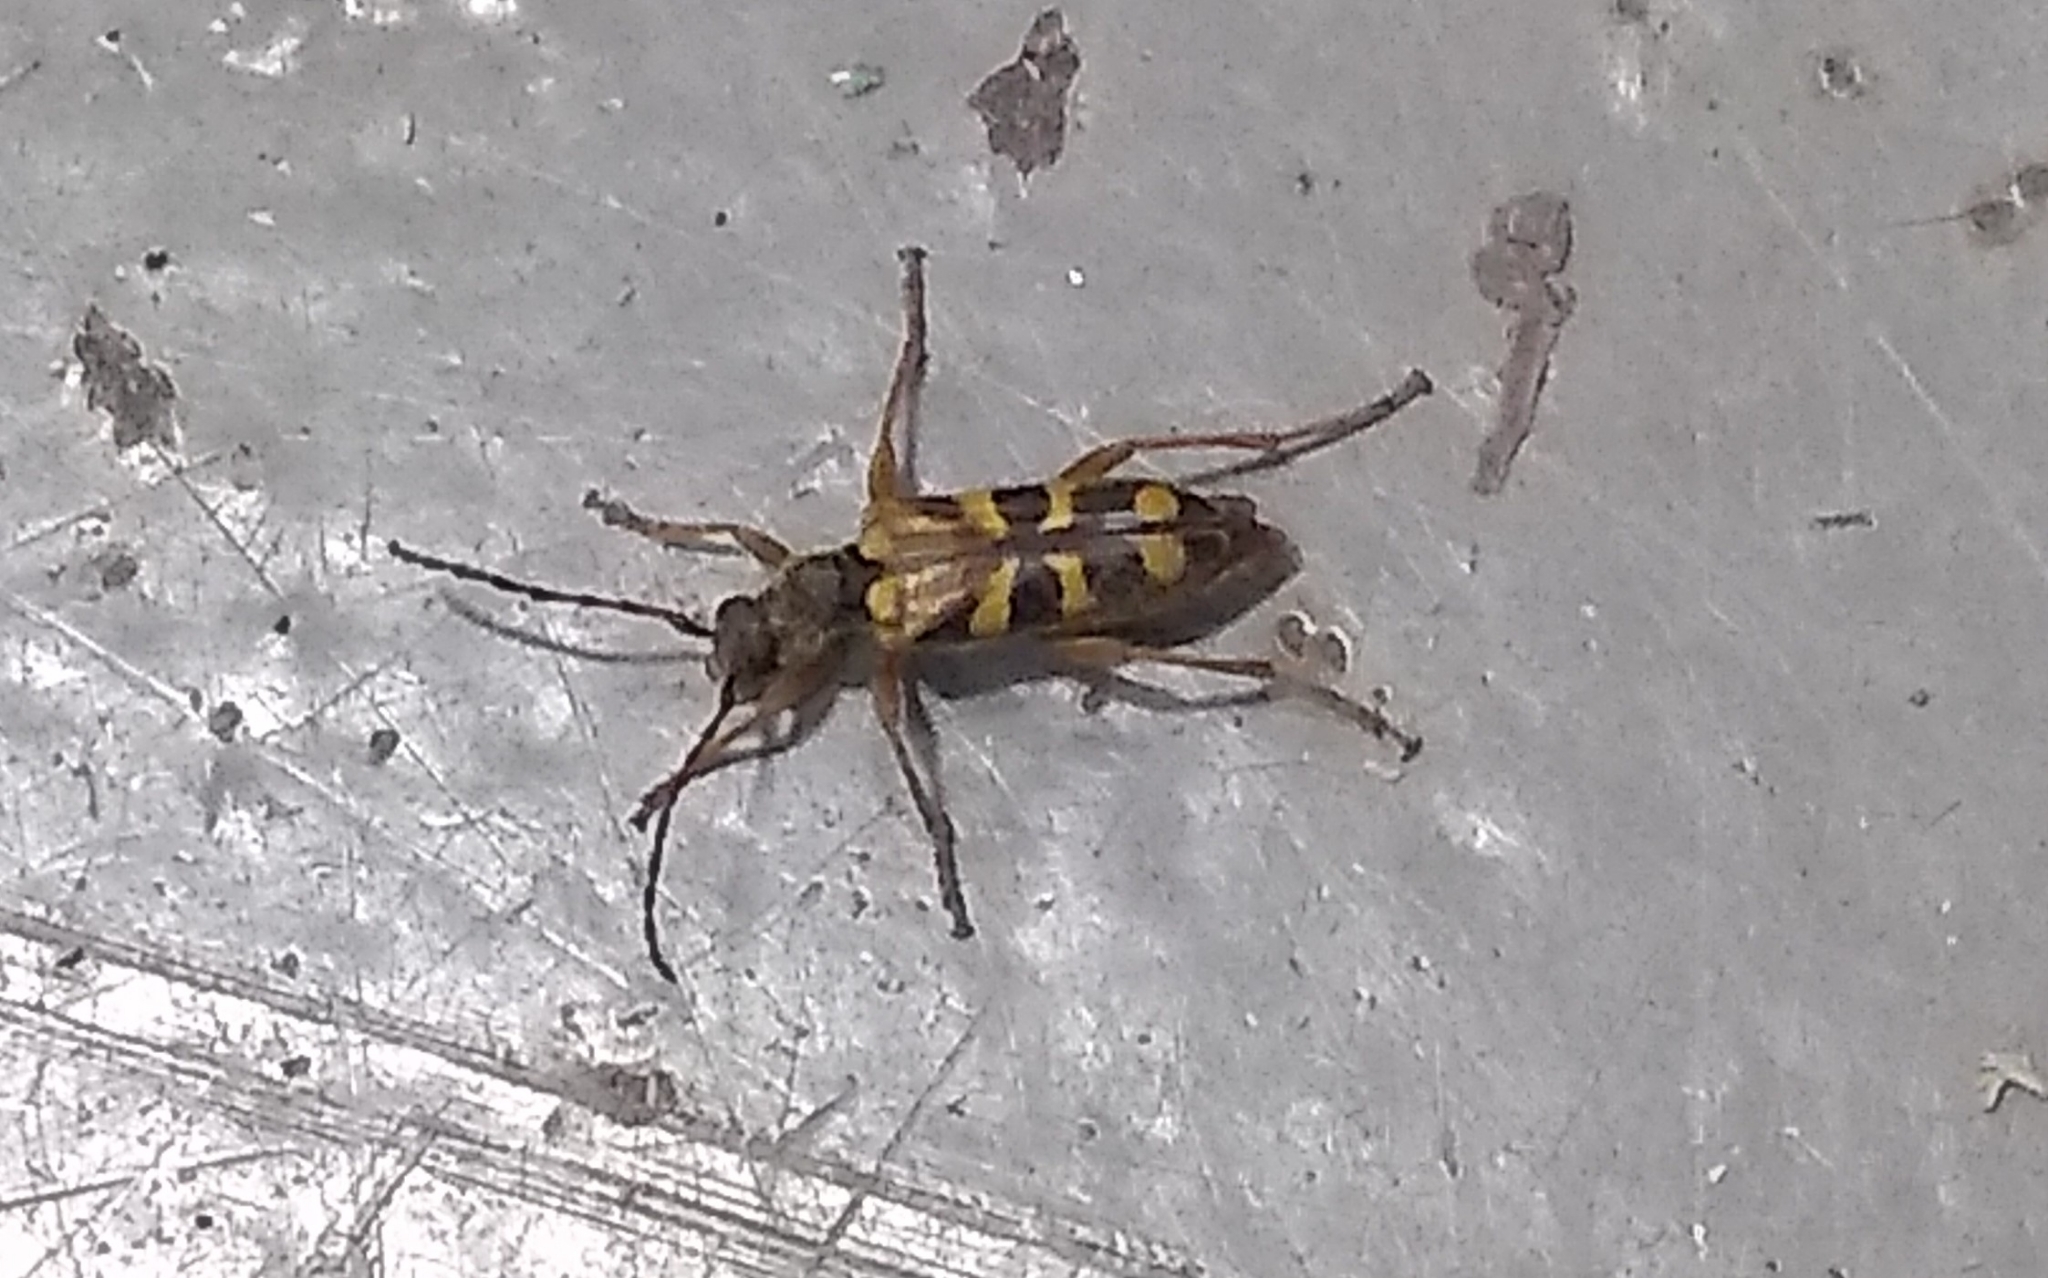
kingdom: Animalia
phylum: Arthropoda
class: Insecta
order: Coleoptera
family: Cerambycidae
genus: Xestoleptura
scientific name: Xestoleptura crassipes
